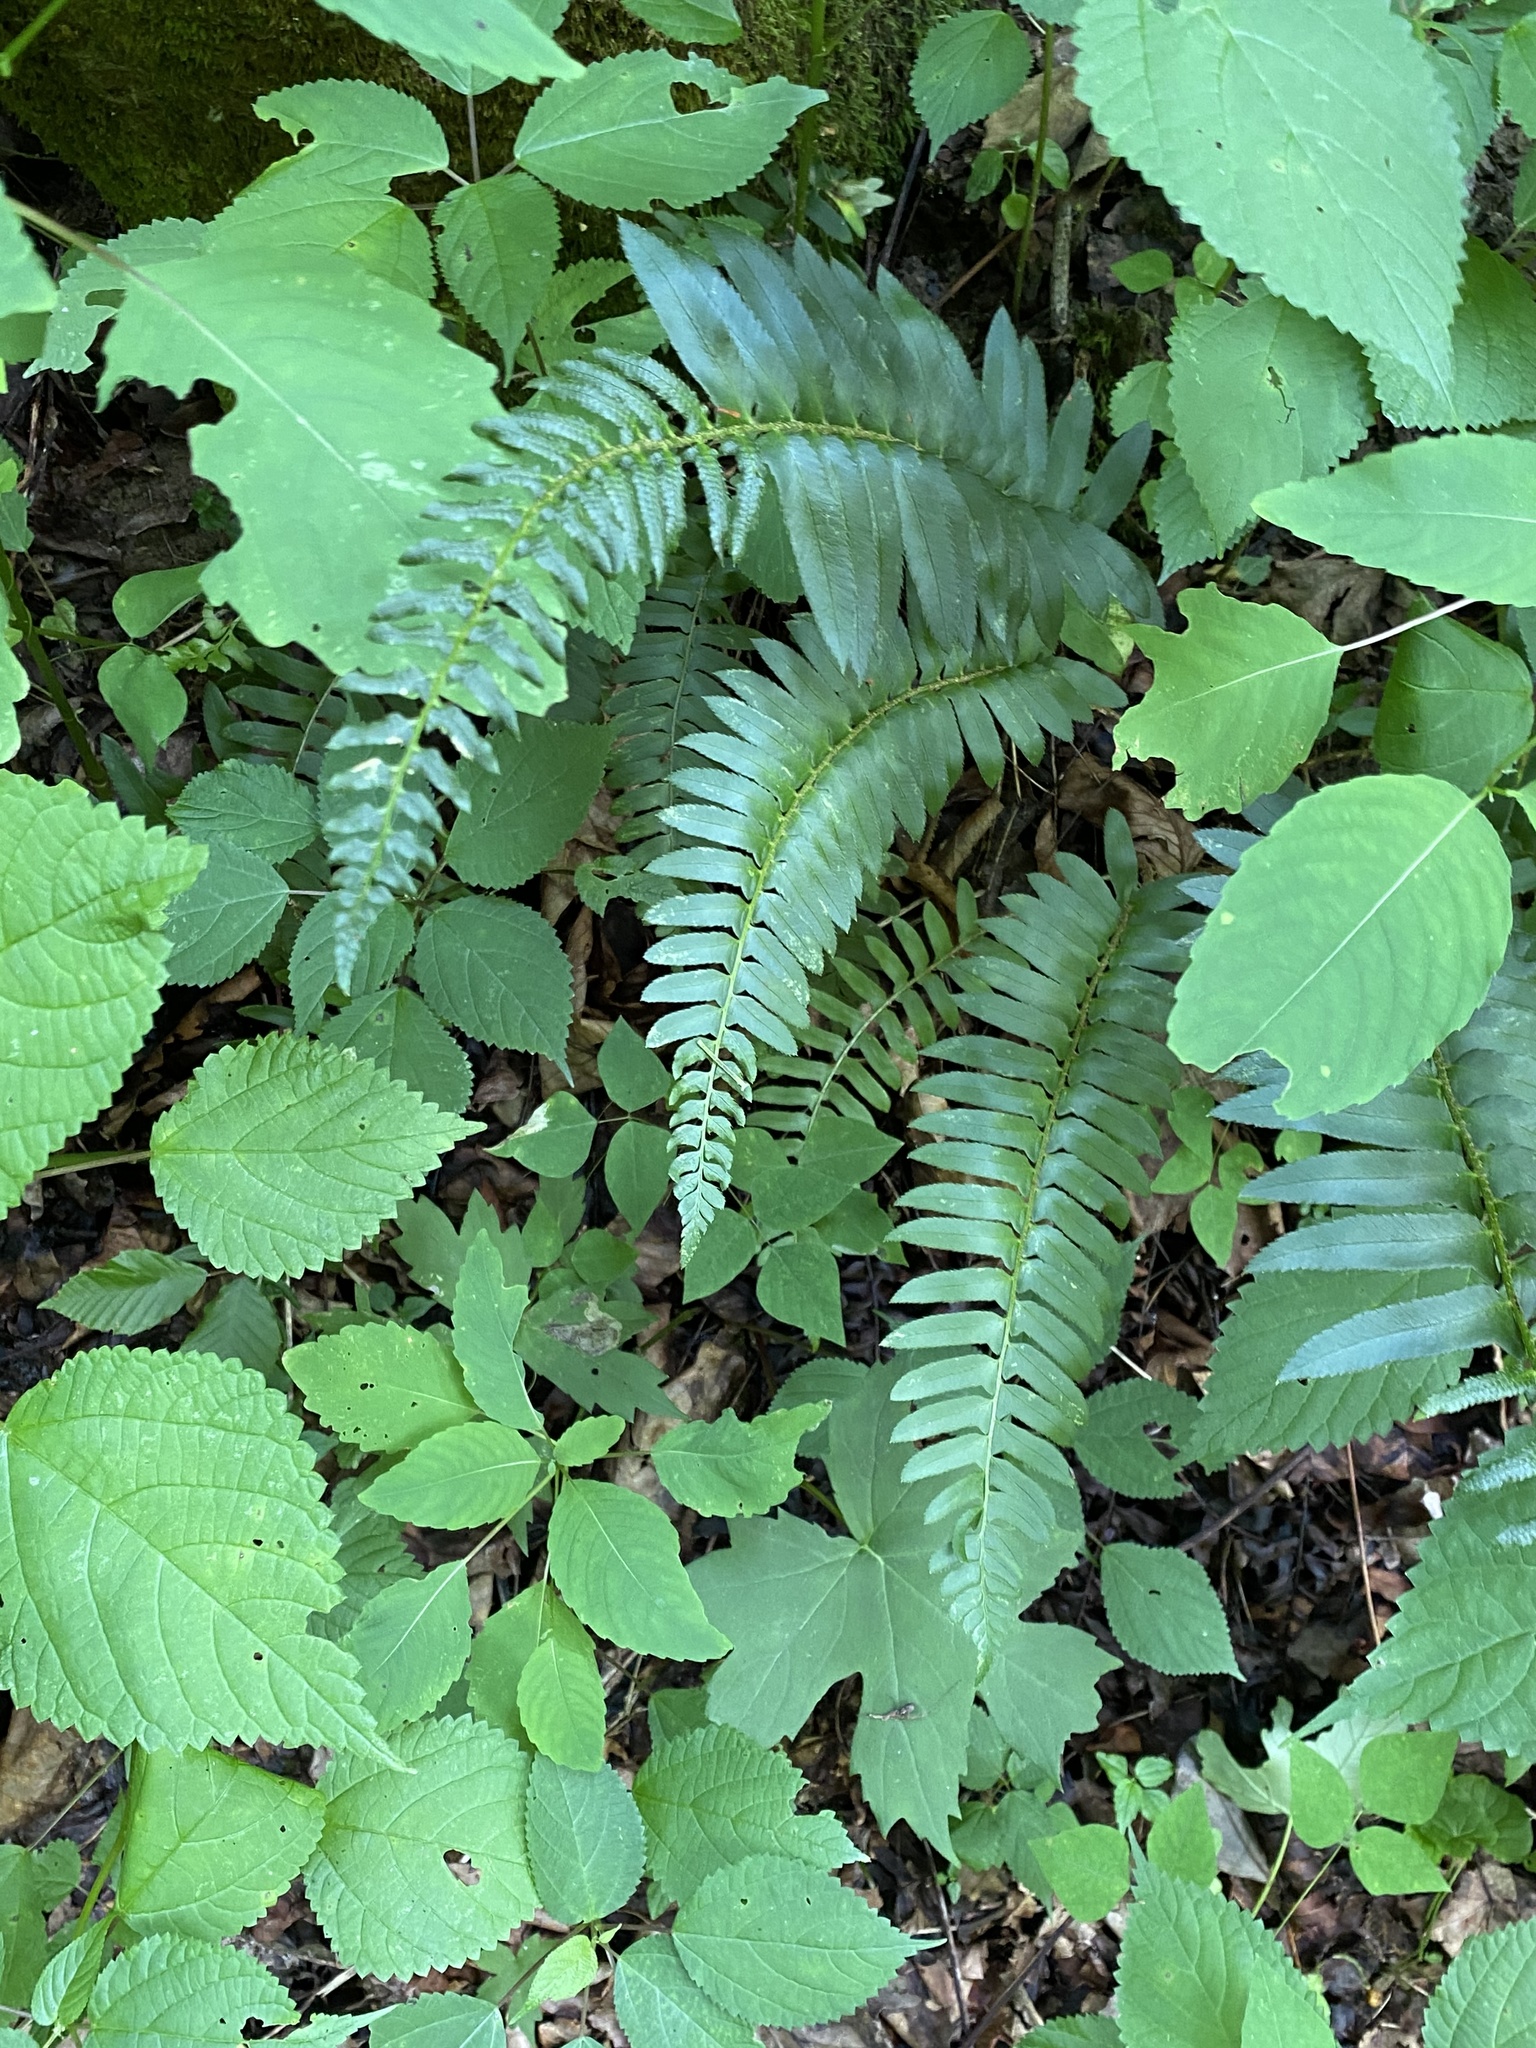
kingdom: Plantae
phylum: Tracheophyta
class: Polypodiopsida
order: Polypodiales
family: Dryopteridaceae
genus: Polystichum
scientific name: Polystichum acrostichoides
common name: Christmas fern
